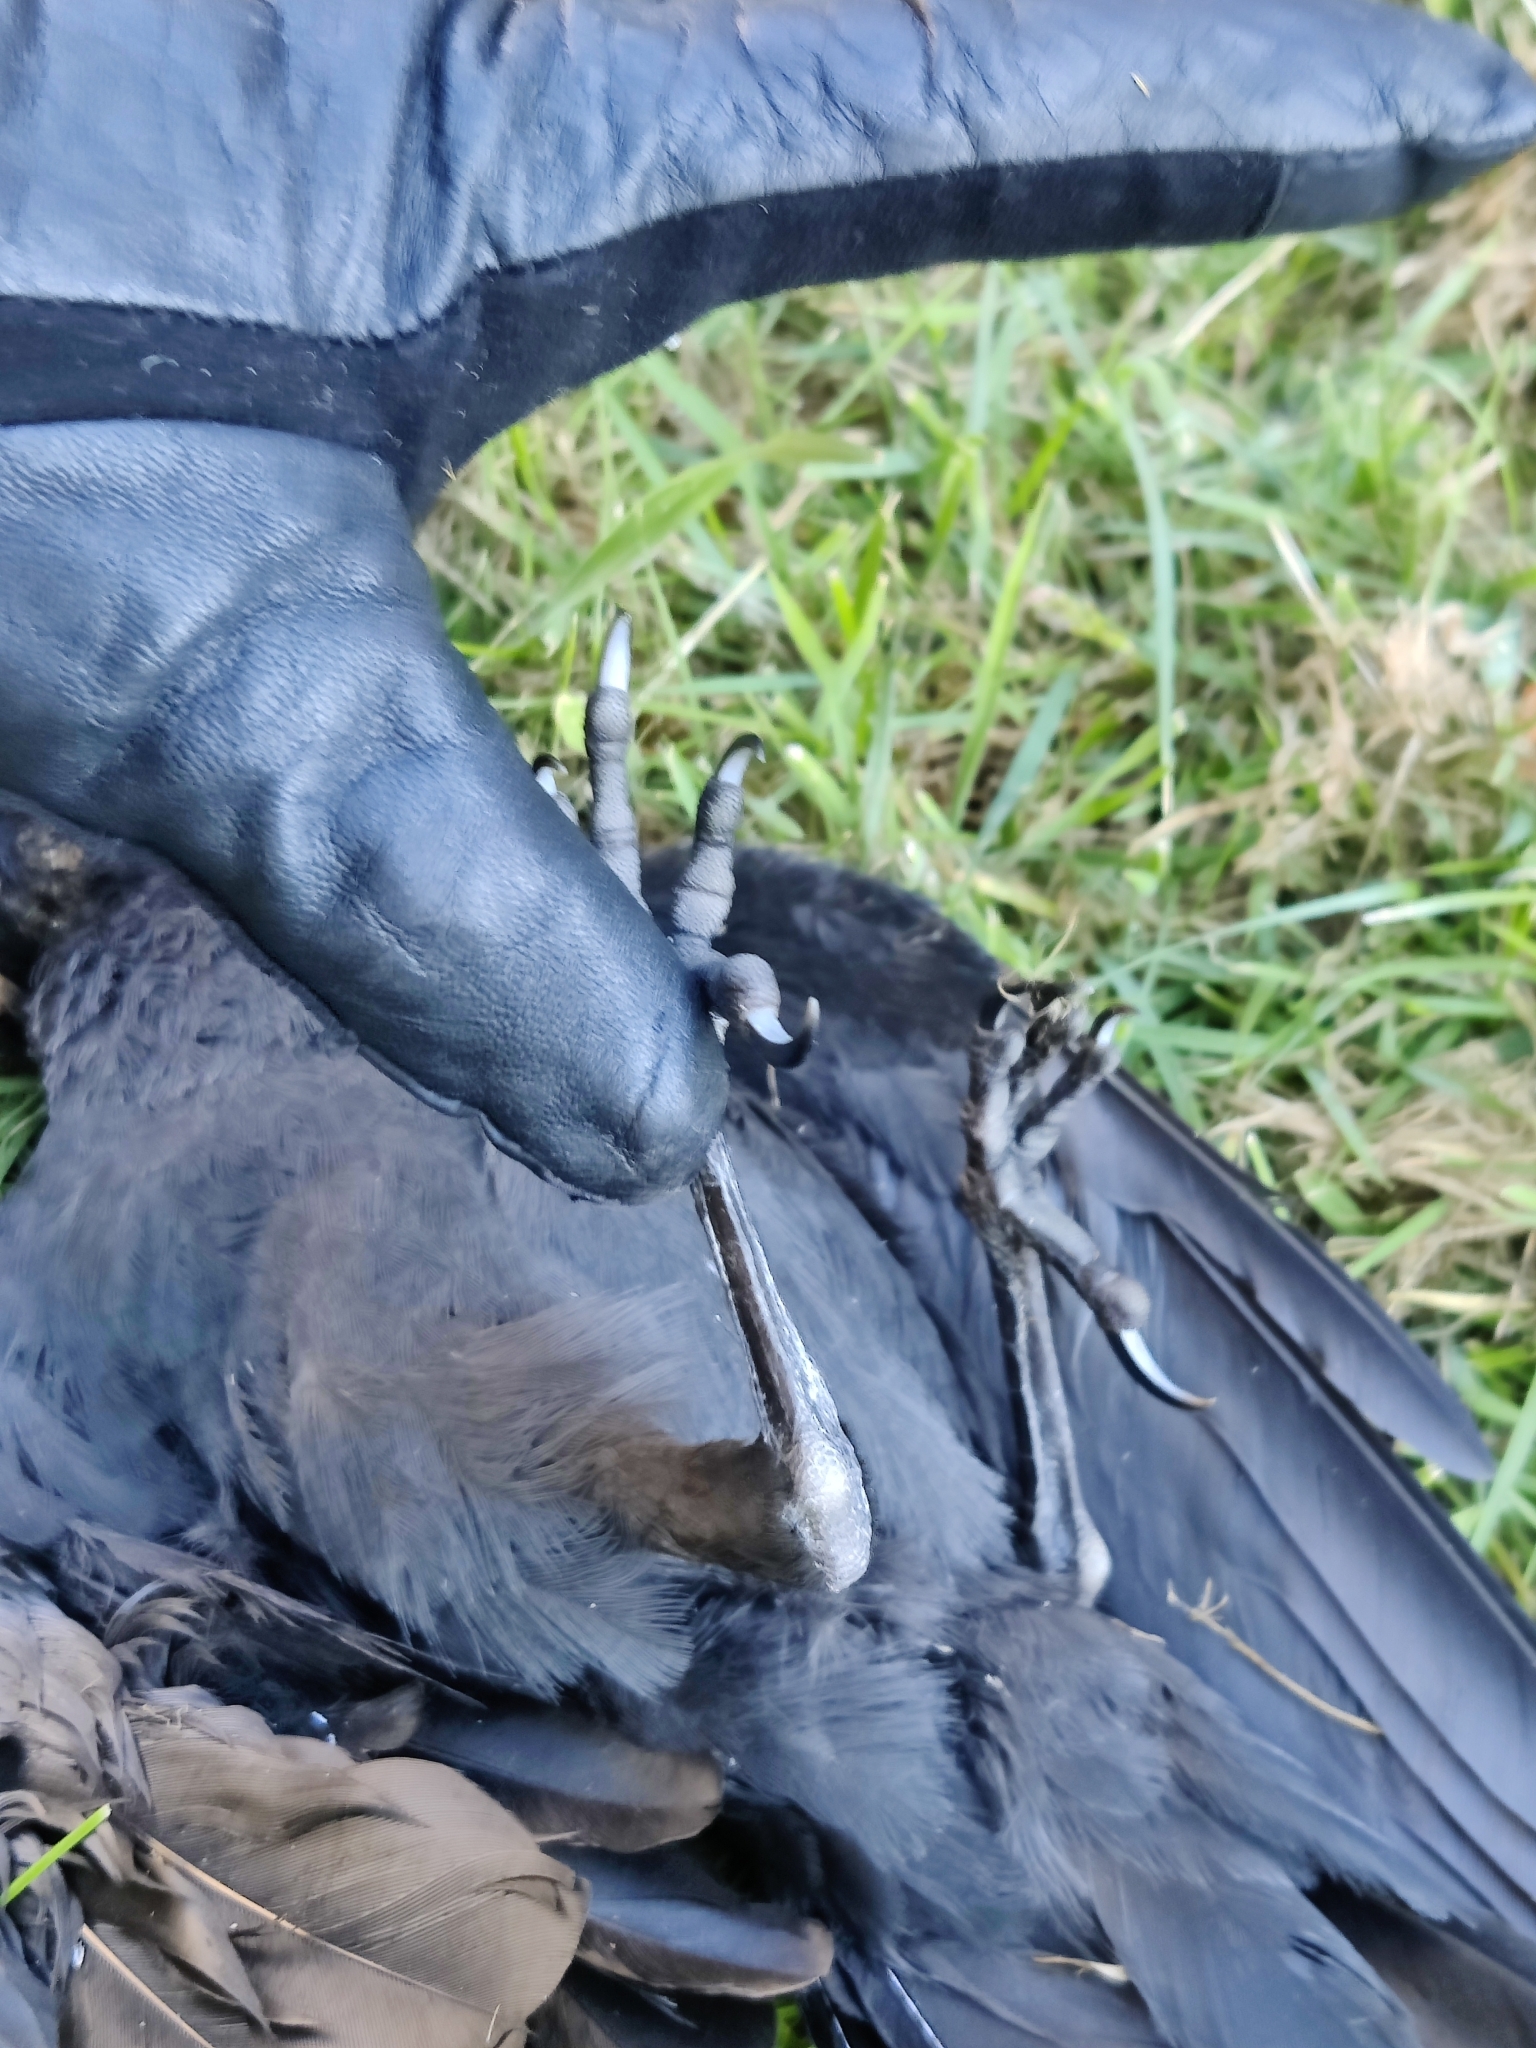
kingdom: Animalia
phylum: Chordata
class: Aves
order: Passeriformes
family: Corvidae
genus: Coloeus
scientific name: Coloeus monedula
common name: Western jackdaw
